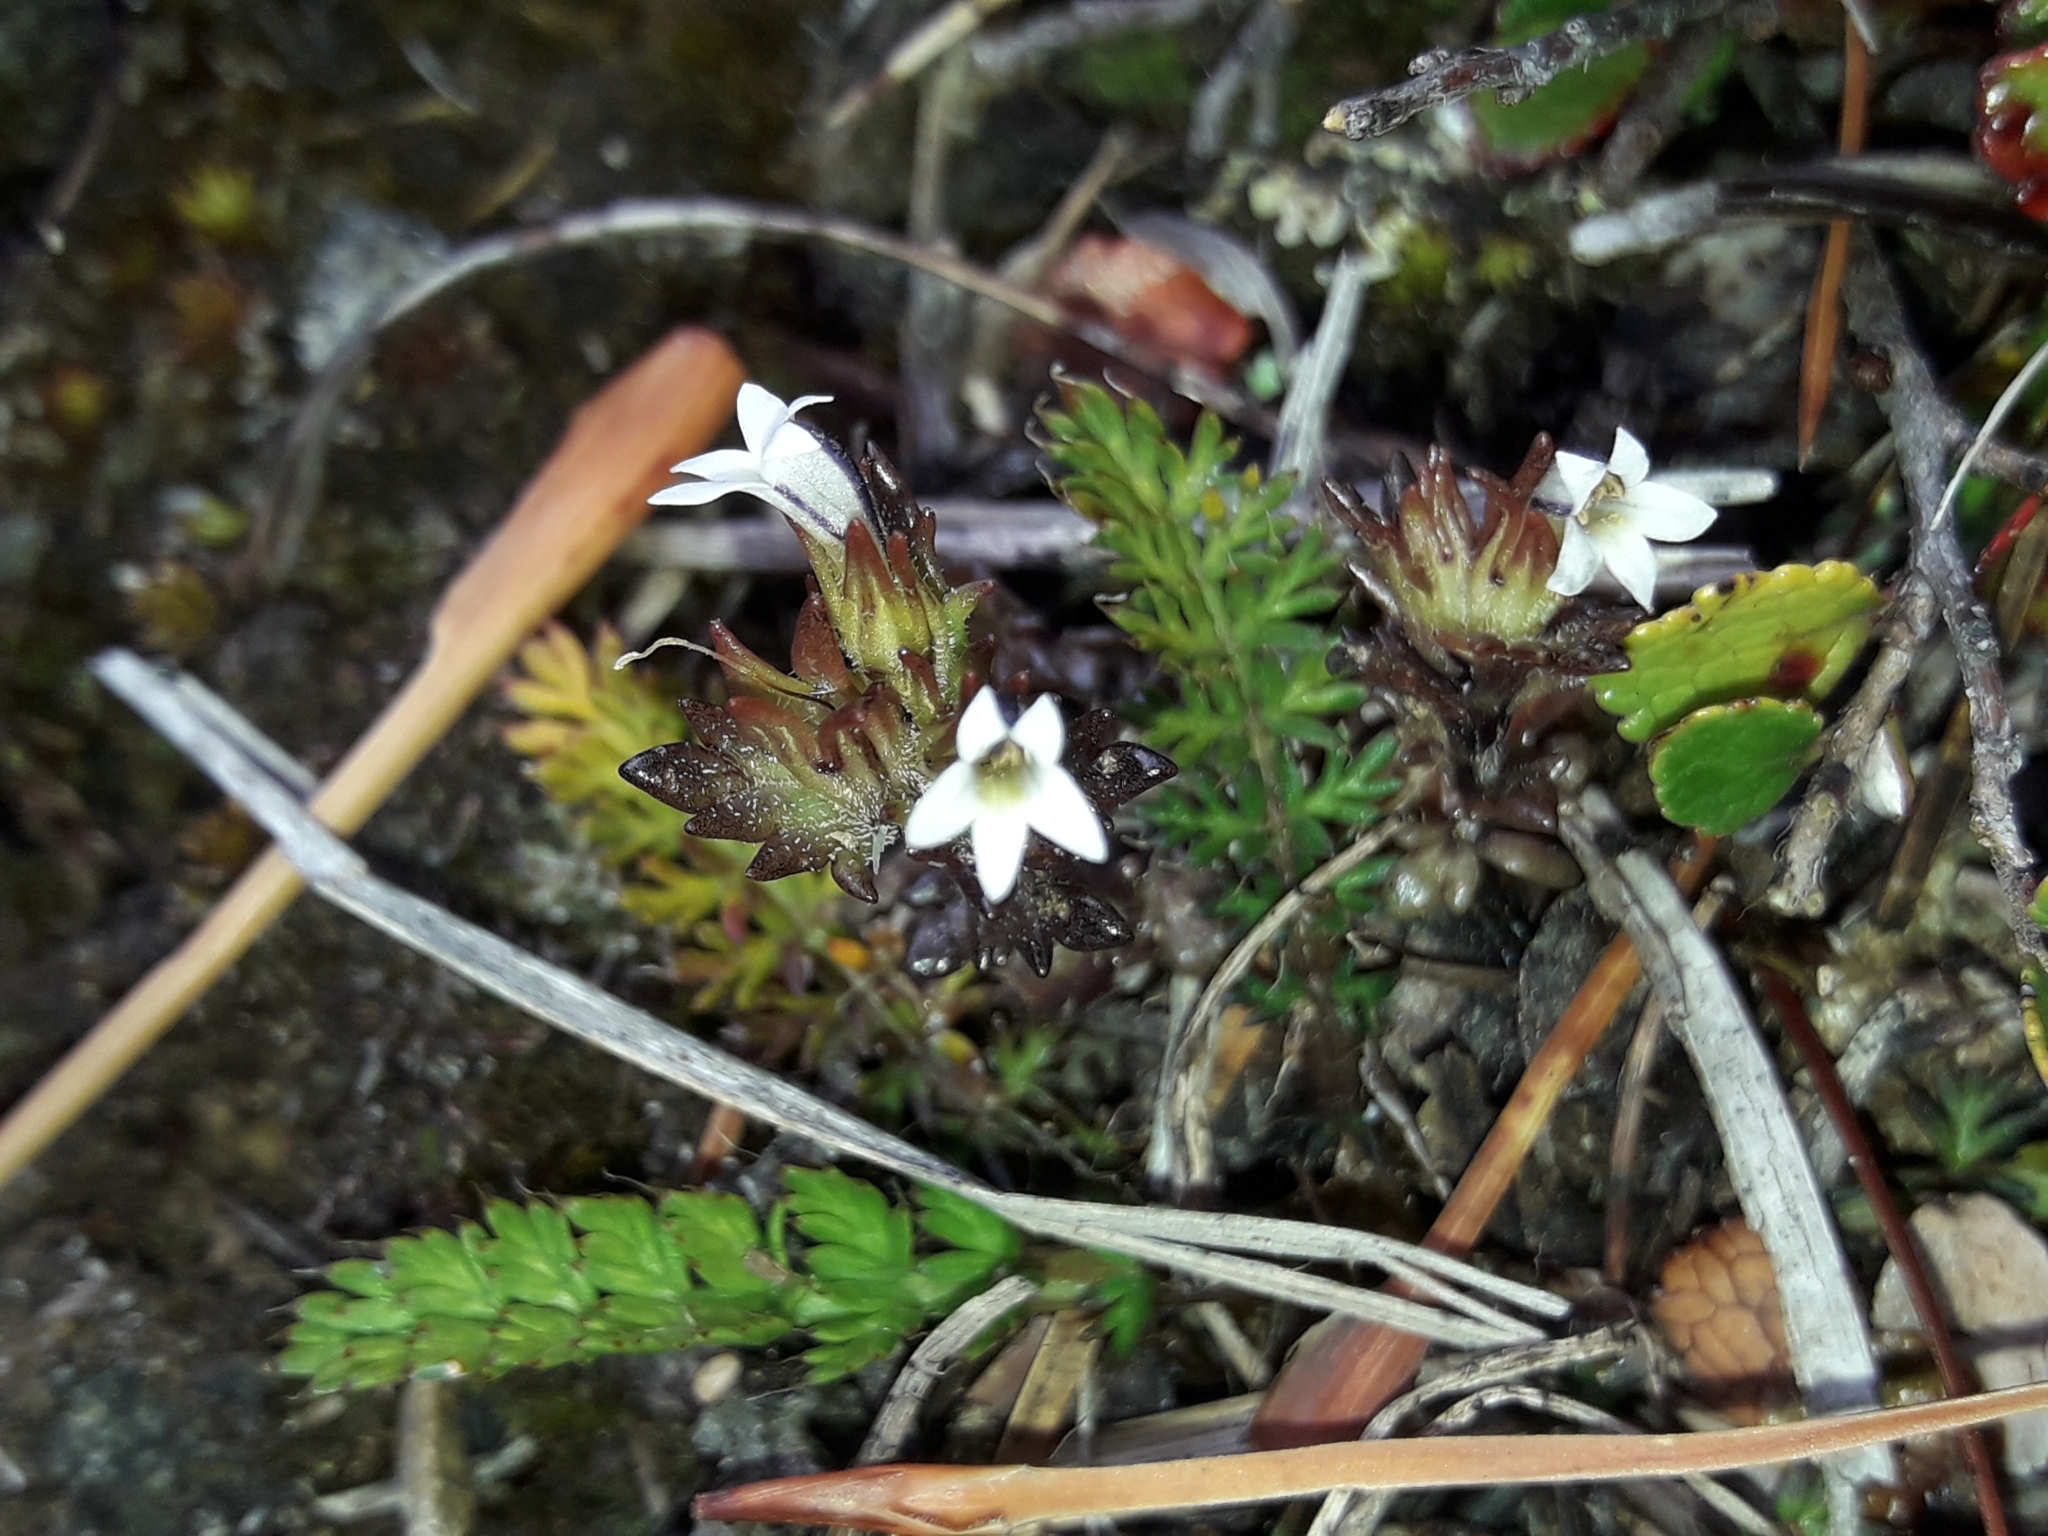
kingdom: Plantae
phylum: Tracheophyta
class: Magnoliopsida
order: Lamiales
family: Orobanchaceae
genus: Euphrasia
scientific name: Euphrasia zelandica
